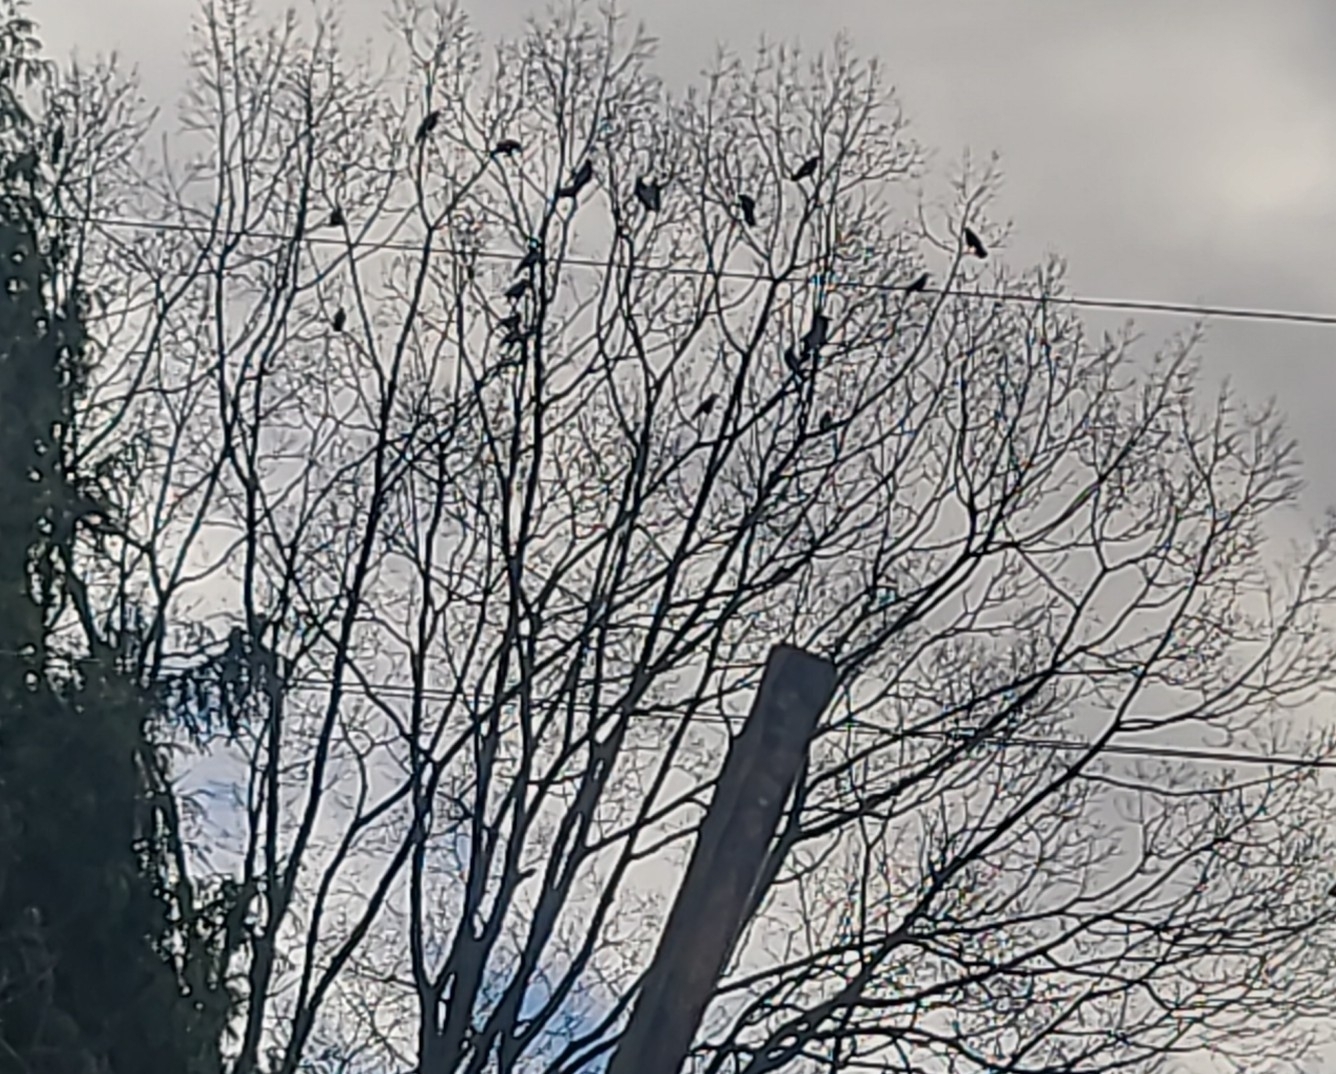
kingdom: Animalia
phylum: Chordata
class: Aves
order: Passeriformes
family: Corvidae
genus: Corvus
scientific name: Corvus corax
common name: Common raven
